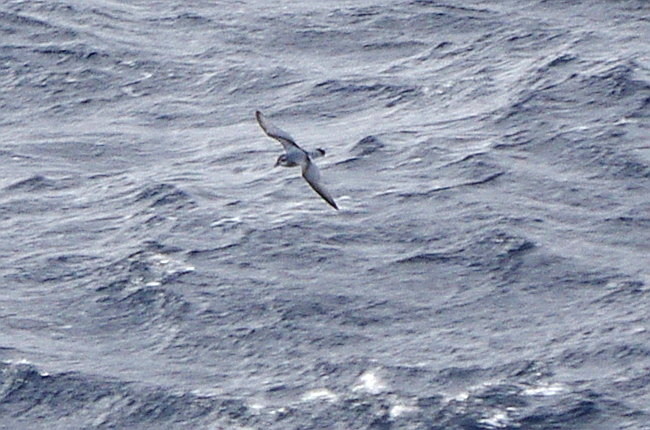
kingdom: Animalia
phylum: Chordata
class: Aves
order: Procellariiformes
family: Procellariidae
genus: Pachyptila
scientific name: Pachyptila desolata
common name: Antarctic prion
